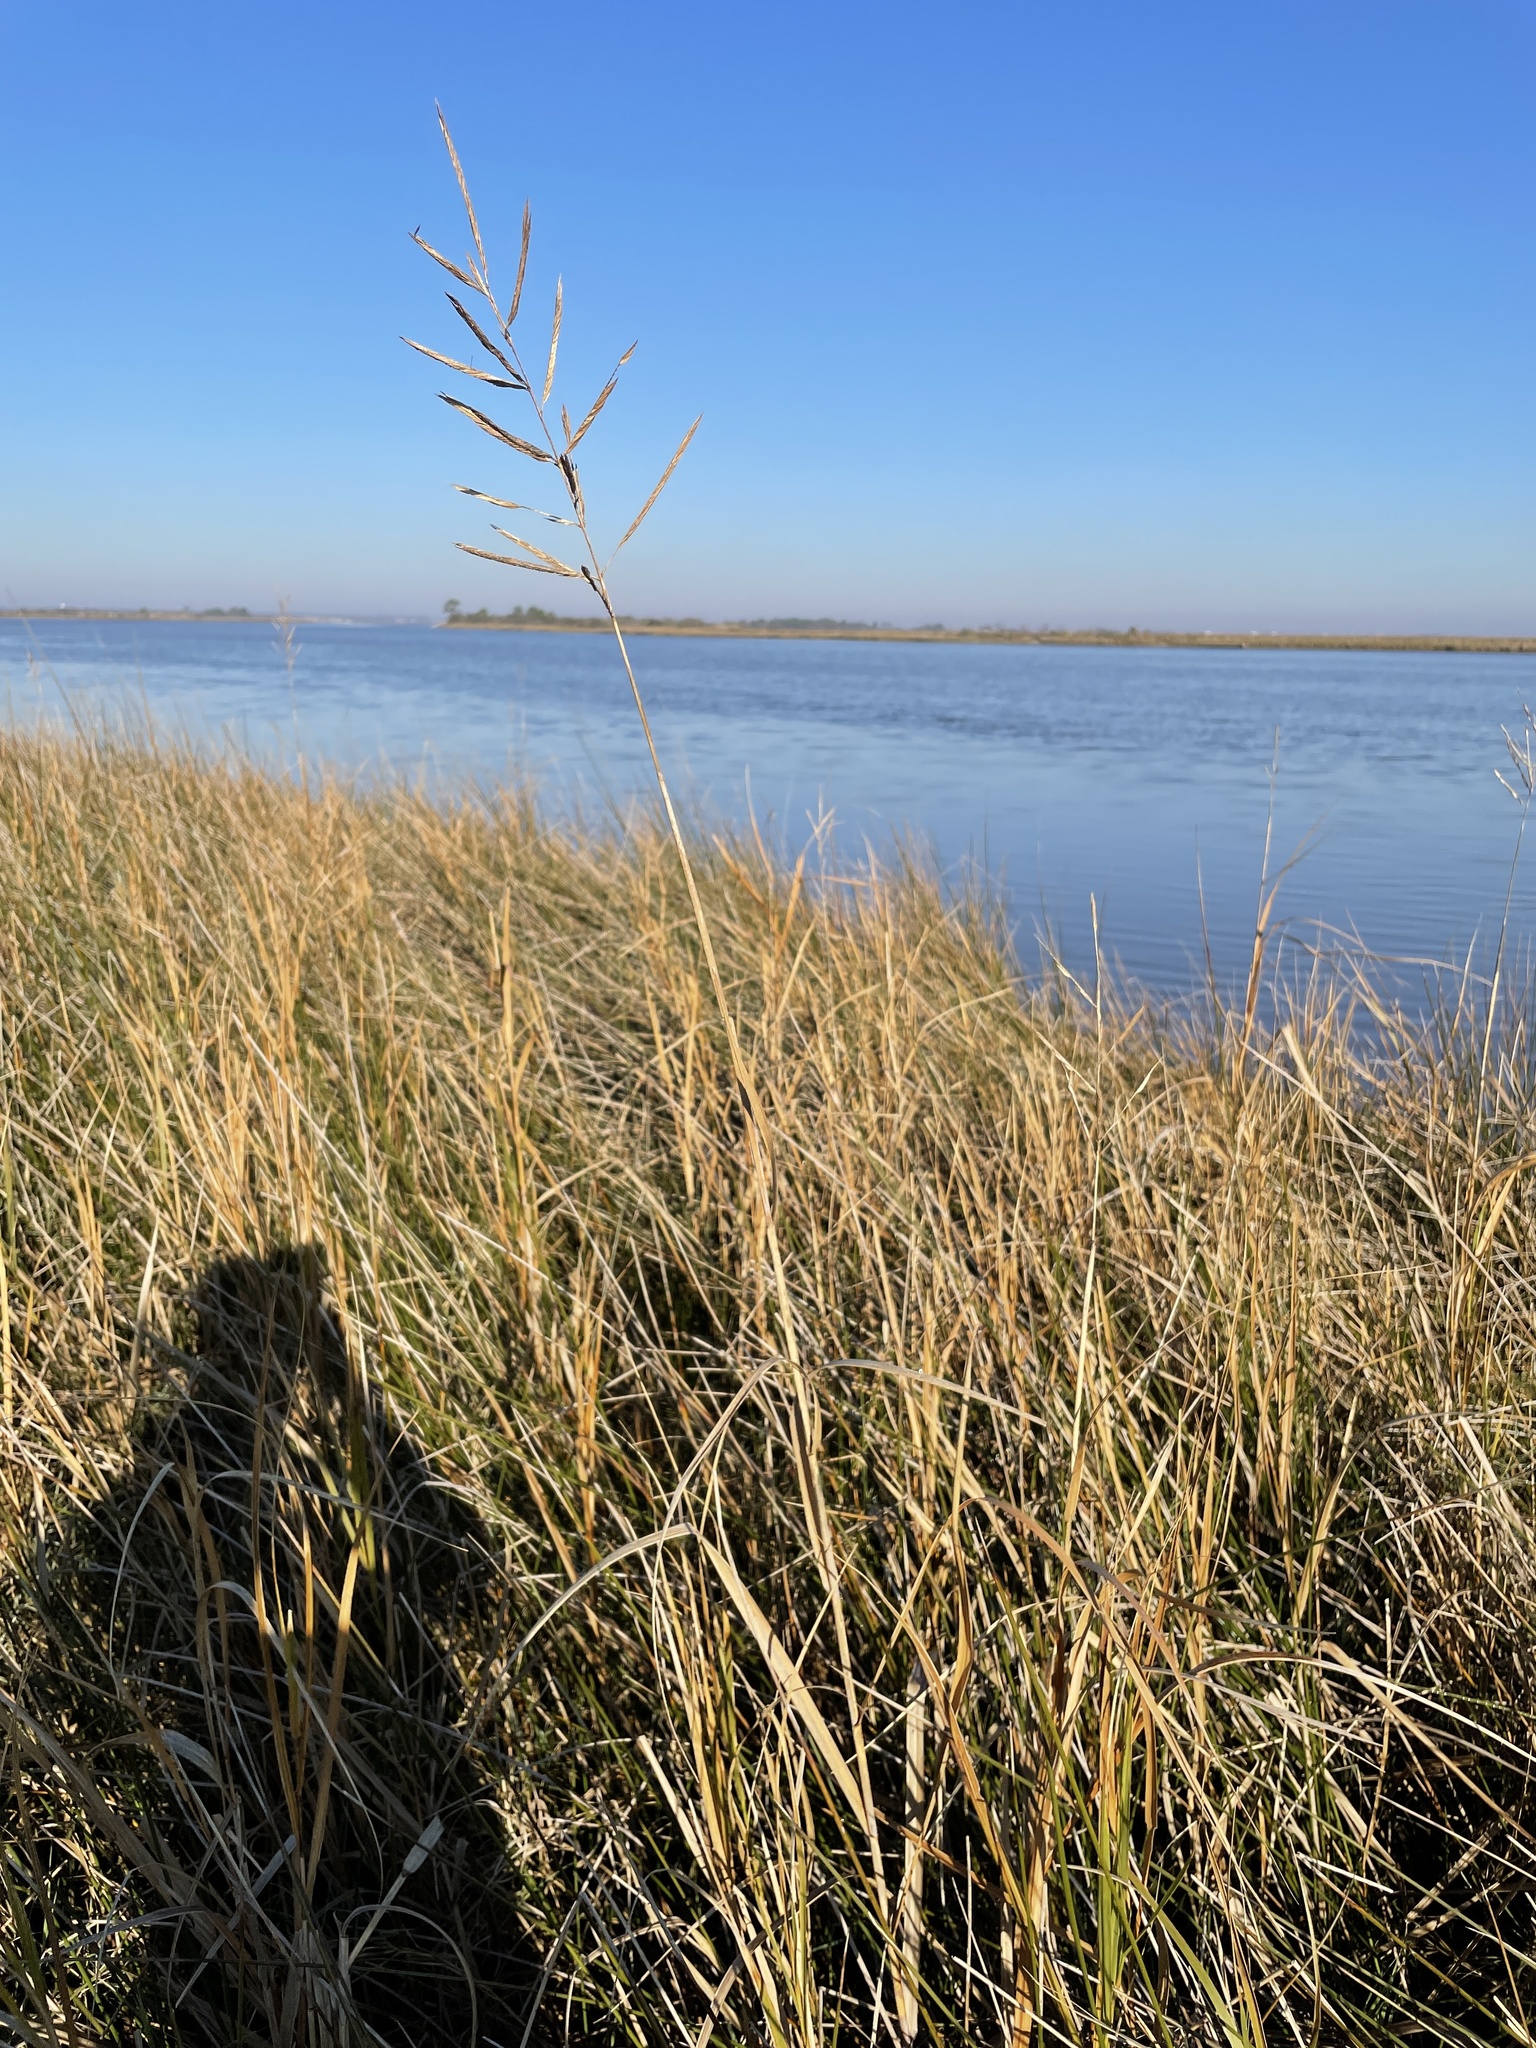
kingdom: Plantae
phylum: Tracheophyta
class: Liliopsida
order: Poales
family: Poaceae
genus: Sporobolus
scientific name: Sporobolus cynosuroides
